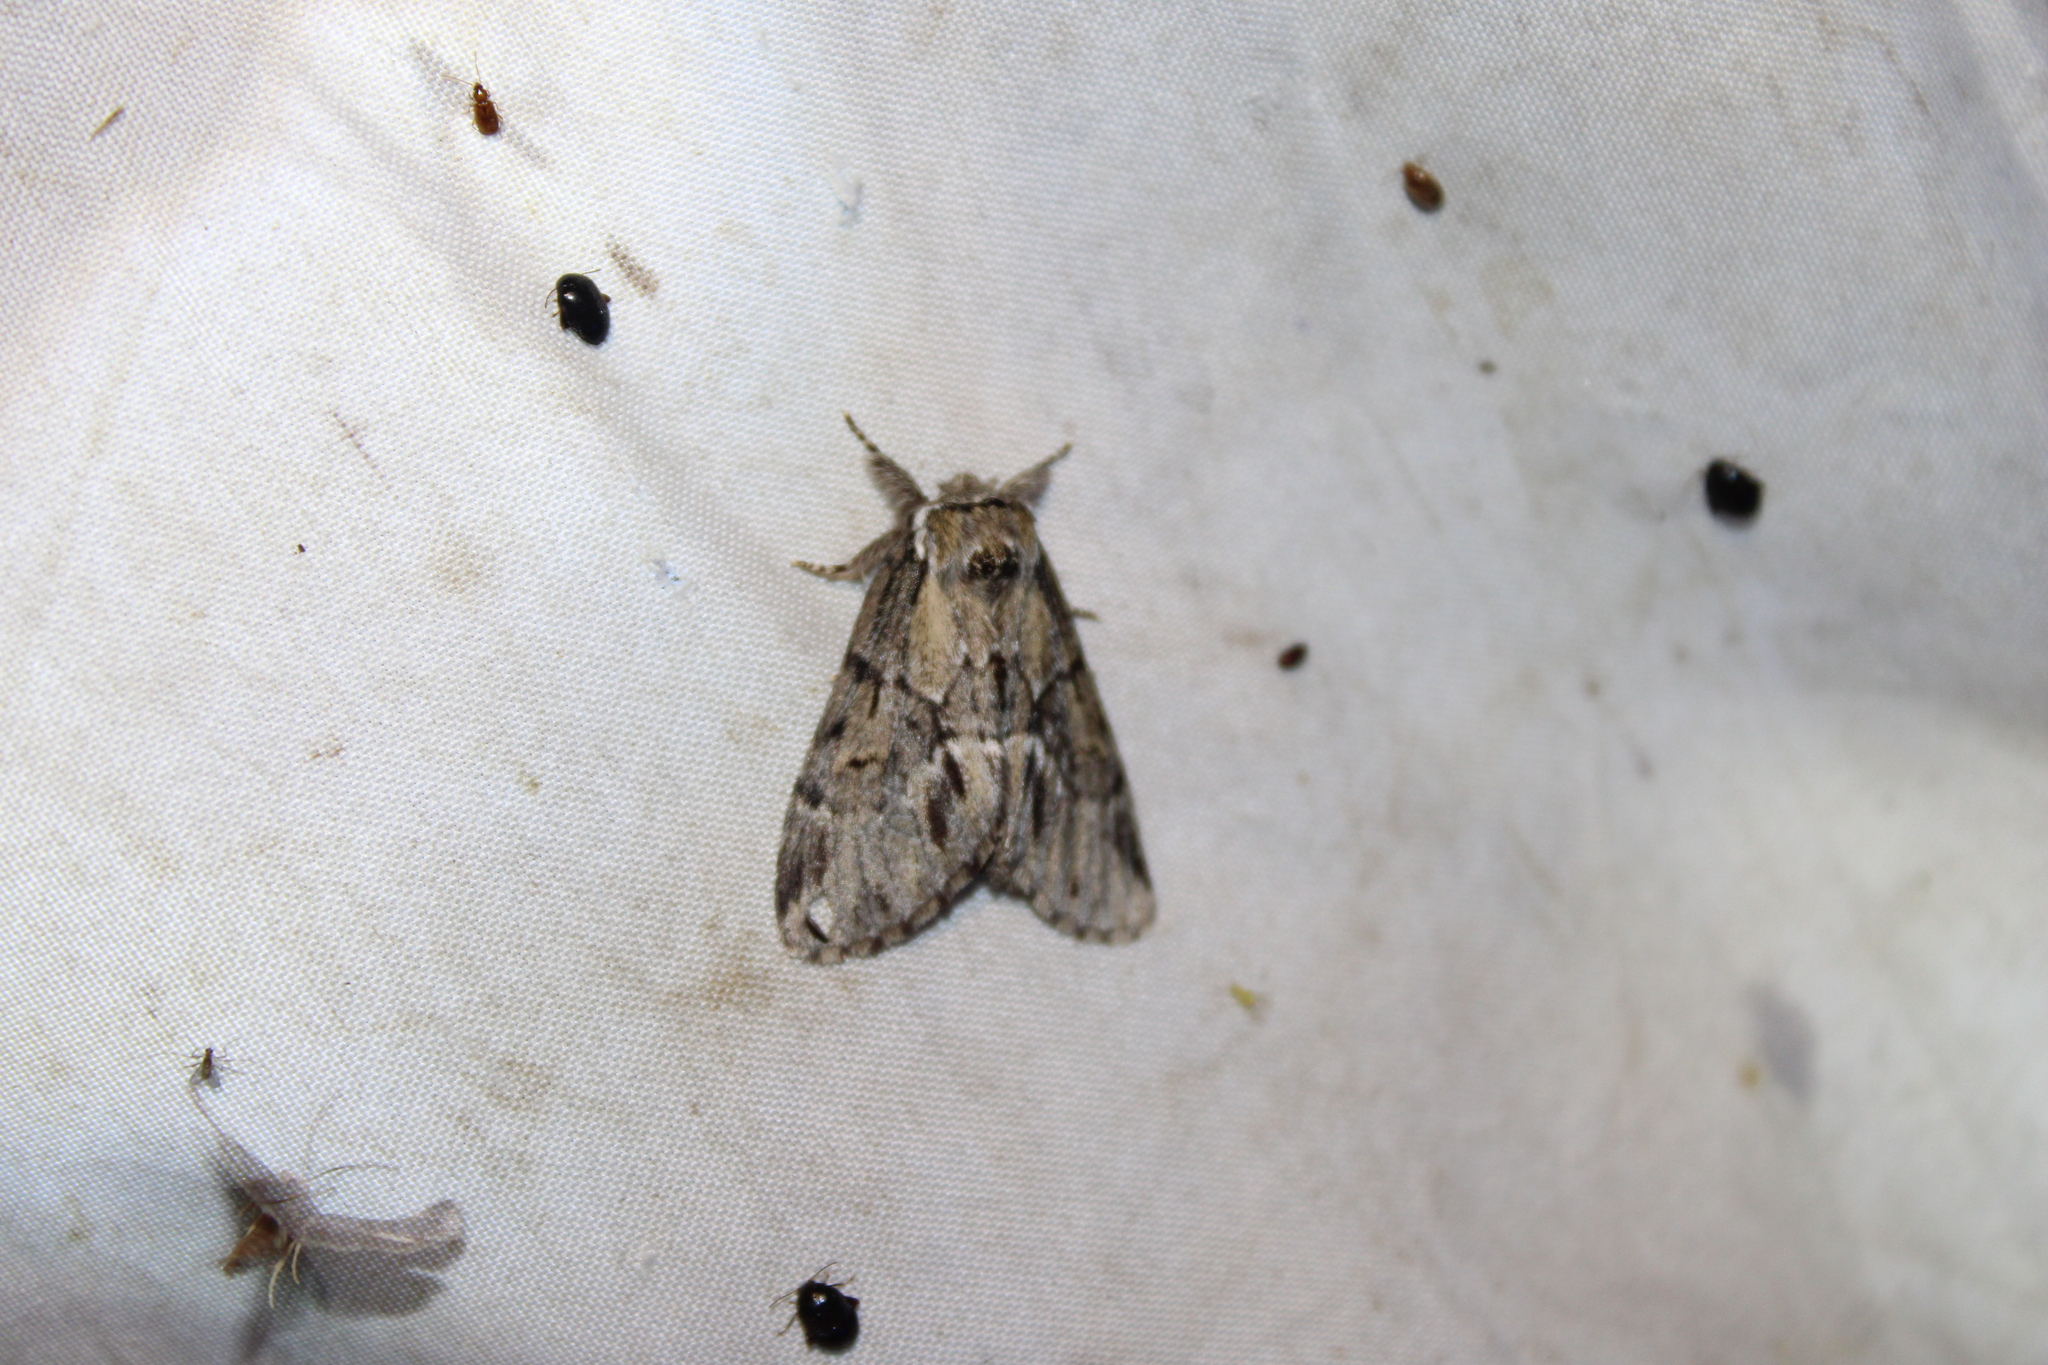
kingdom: Animalia
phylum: Arthropoda
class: Insecta
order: Lepidoptera
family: Notodontidae
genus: Paraeschra
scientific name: Paraeschra georgica
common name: Georgian prominent
